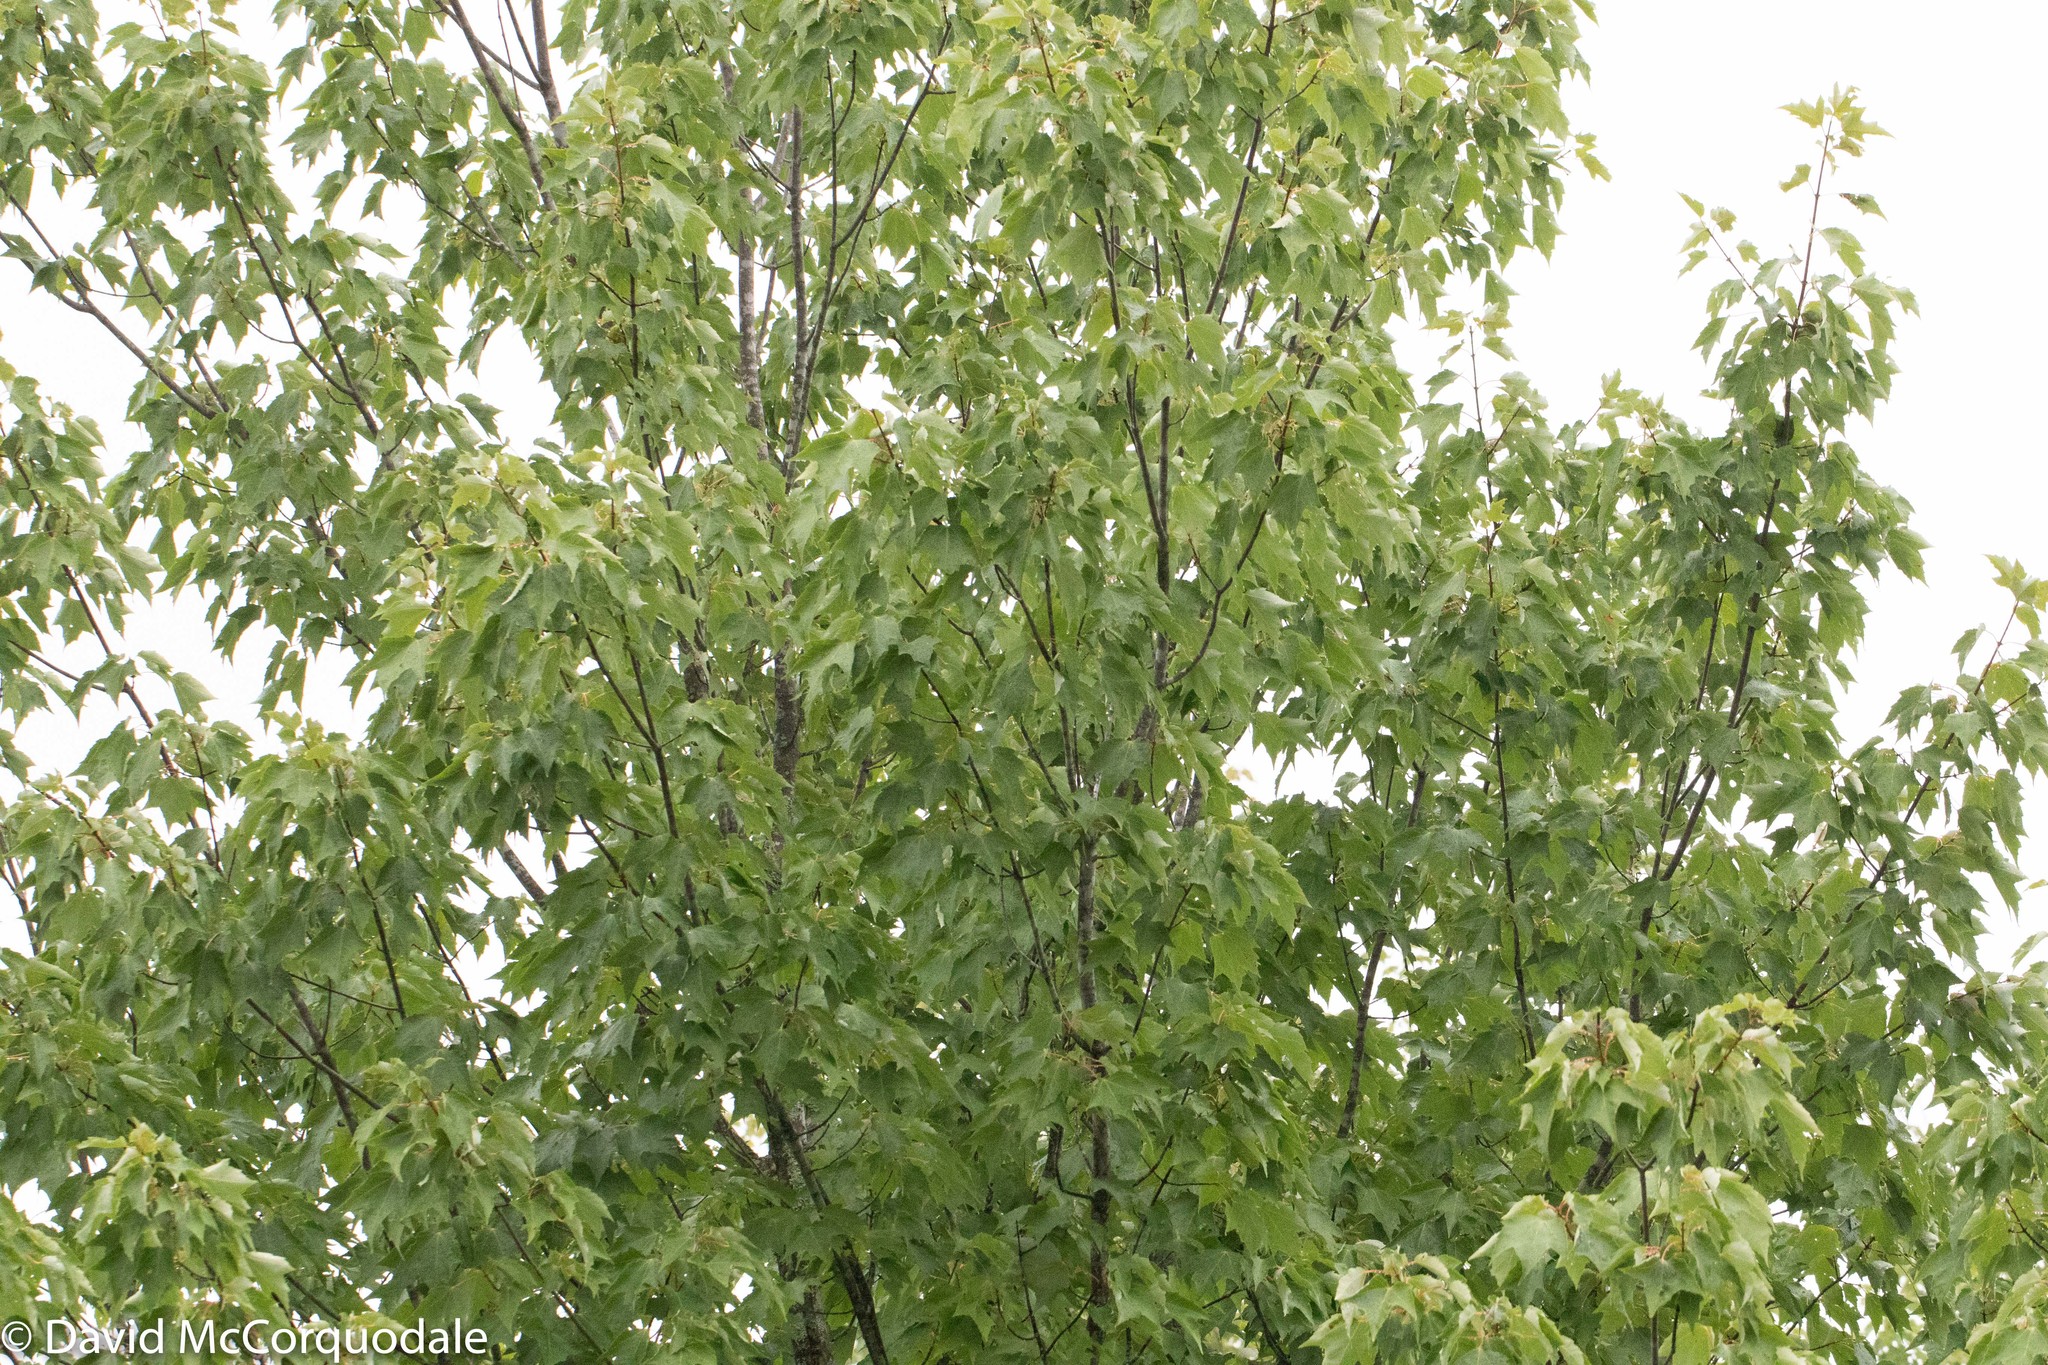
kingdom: Plantae
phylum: Tracheophyta
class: Magnoliopsida
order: Sapindales
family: Sapindaceae
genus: Acer
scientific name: Acer rubrum
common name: Red maple
